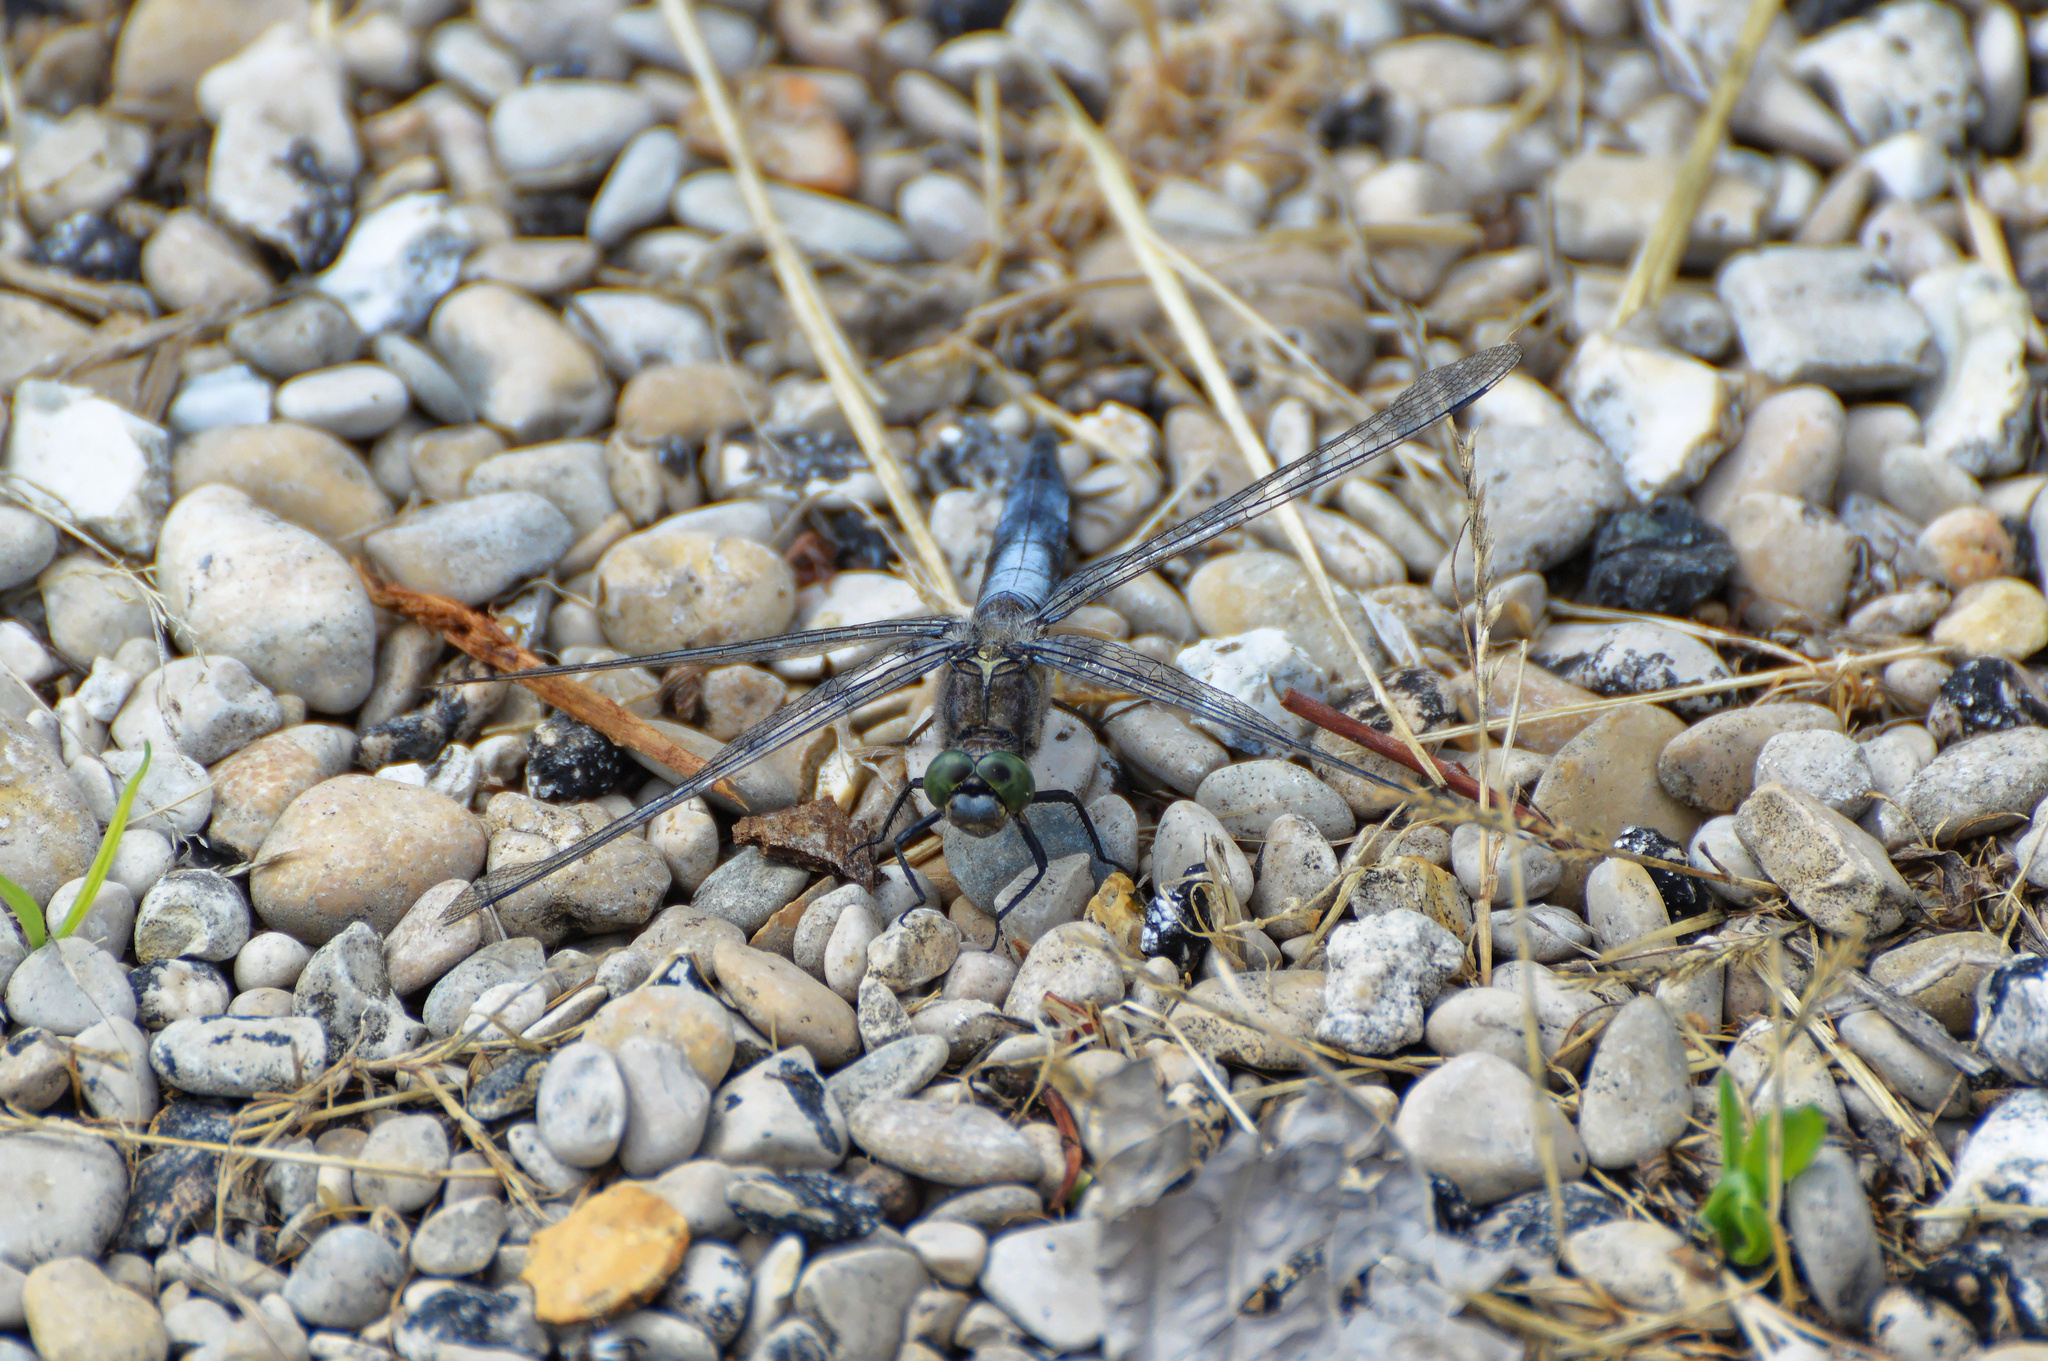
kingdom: Animalia
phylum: Arthropoda
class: Insecta
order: Odonata
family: Libellulidae
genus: Orthetrum
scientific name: Orthetrum cancellatum
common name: Black-tailed skimmer
